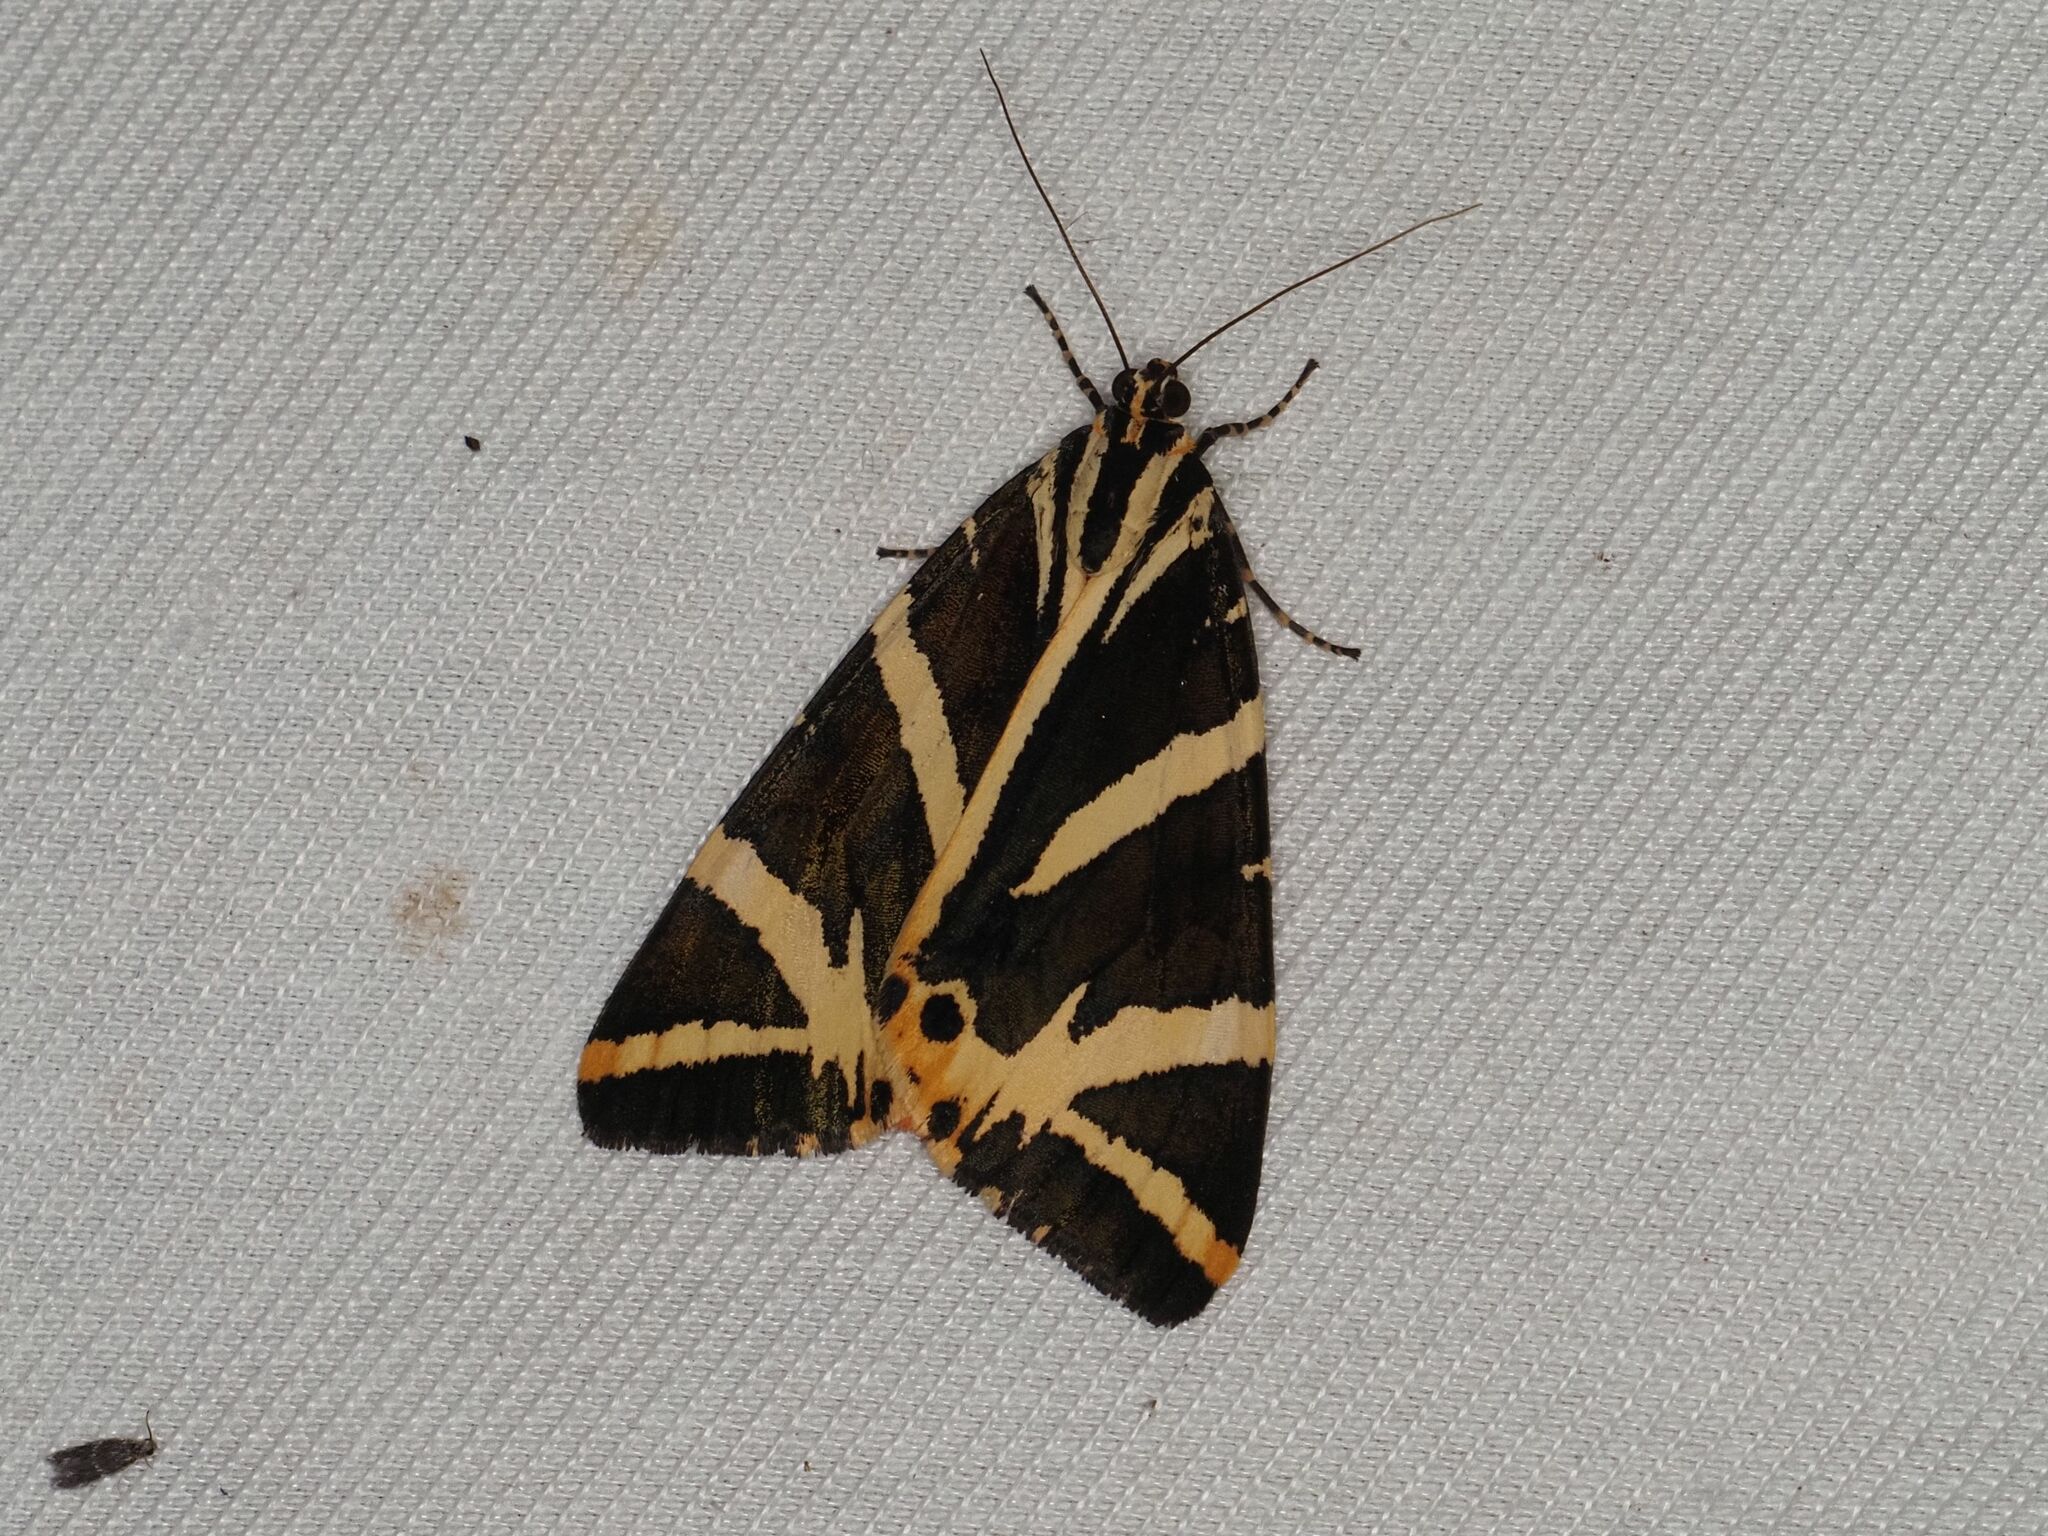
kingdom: Animalia
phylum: Arthropoda
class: Insecta
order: Lepidoptera
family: Erebidae
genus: Euplagia
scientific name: Euplagia quadripunctaria
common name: Jersey tiger
